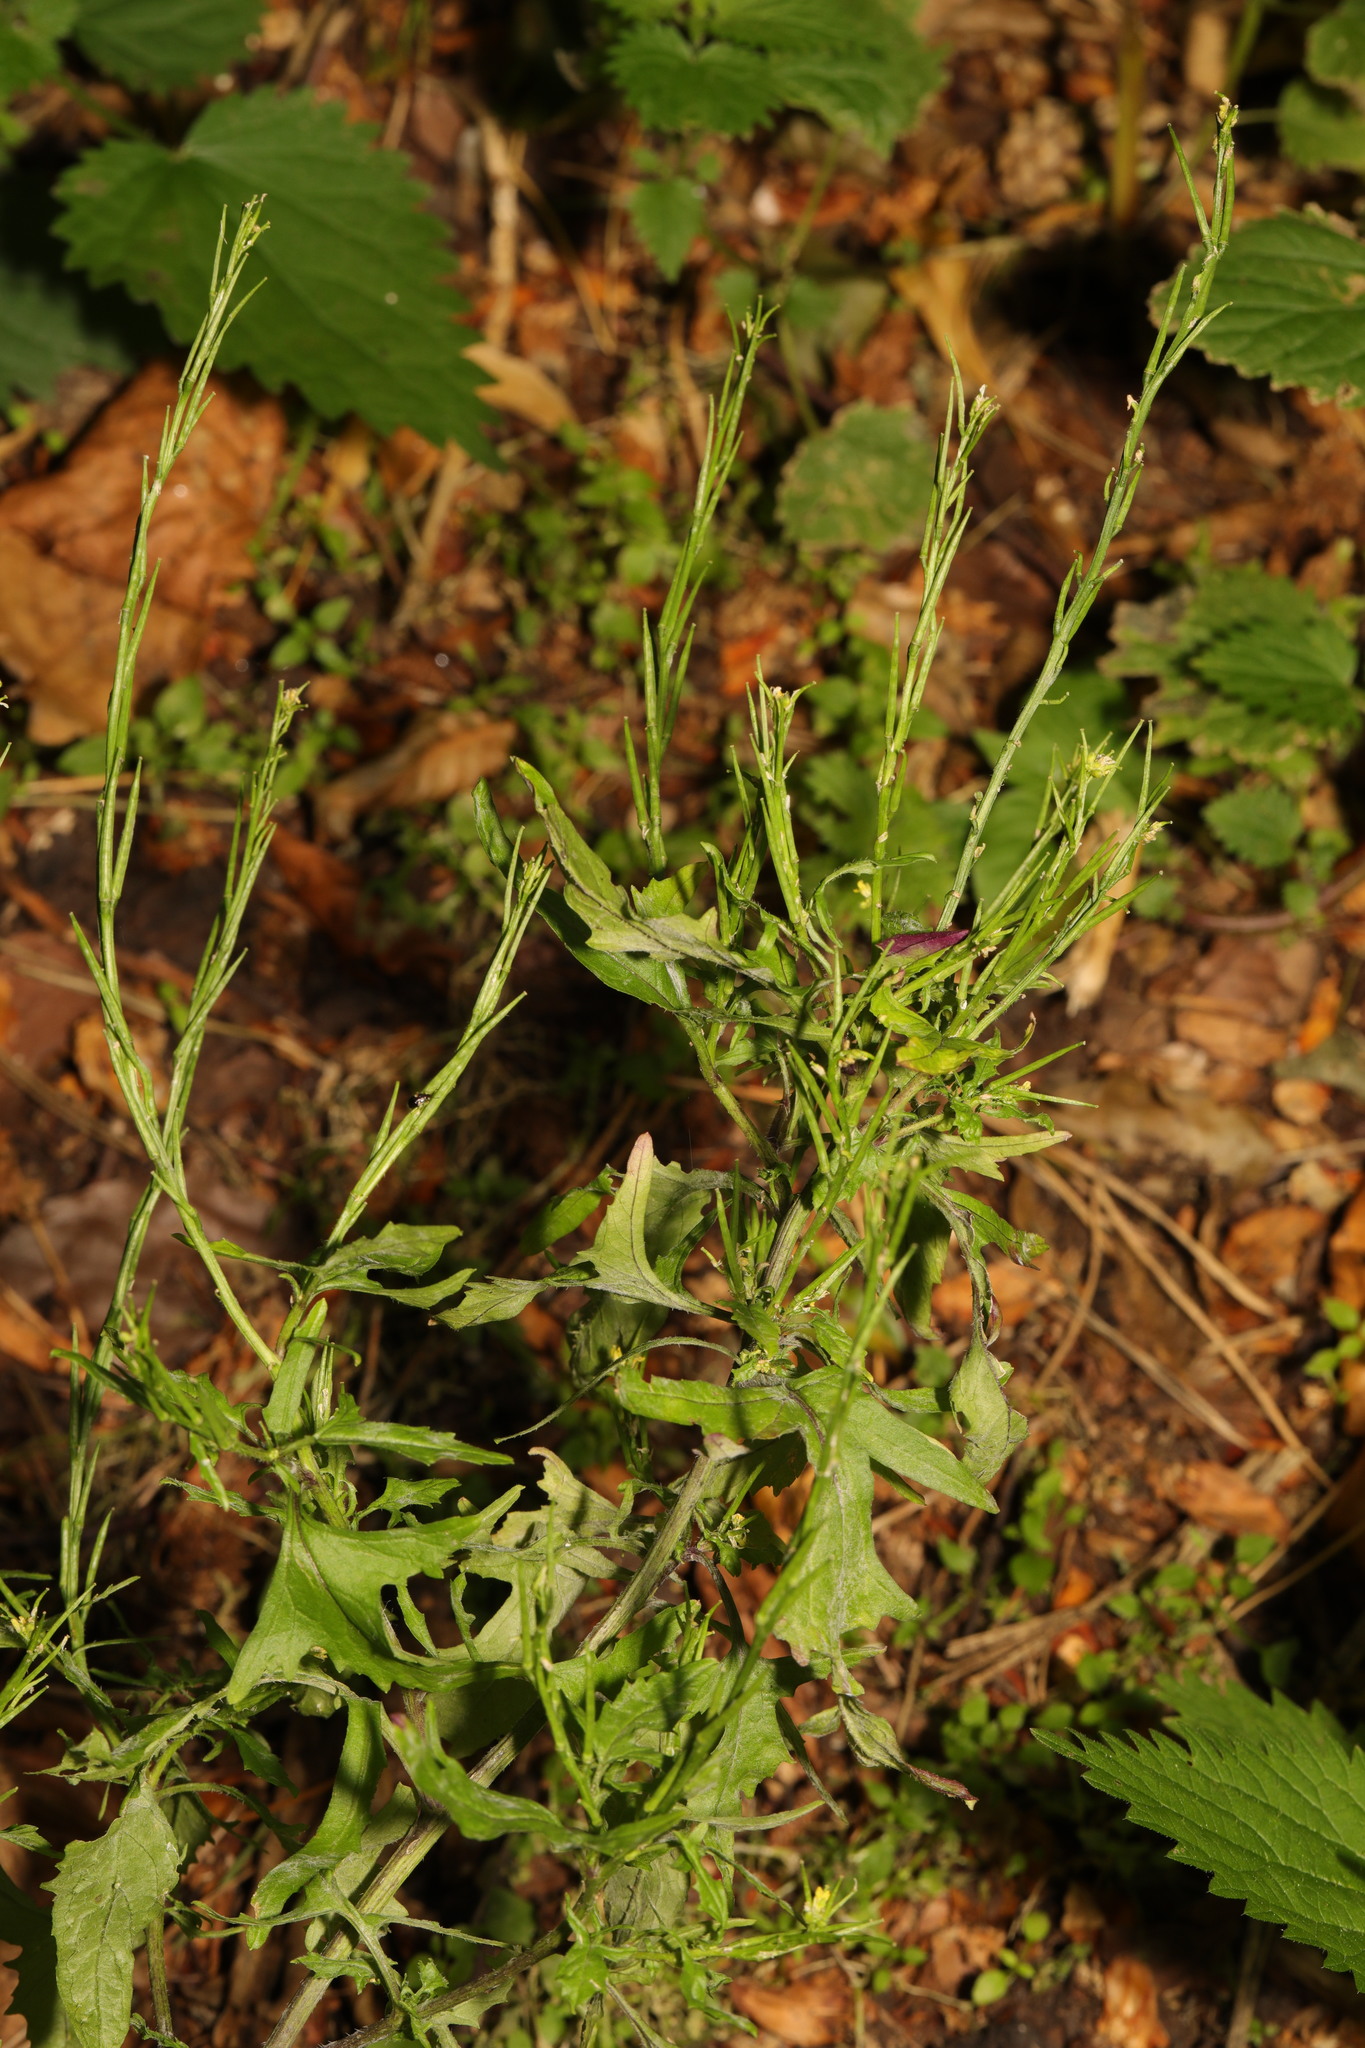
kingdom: Plantae
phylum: Tracheophyta
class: Magnoliopsida
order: Brassicales
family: Brassicaceae
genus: Sisymbrium
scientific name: Sisymbrium officinale
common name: Hedge mustard
